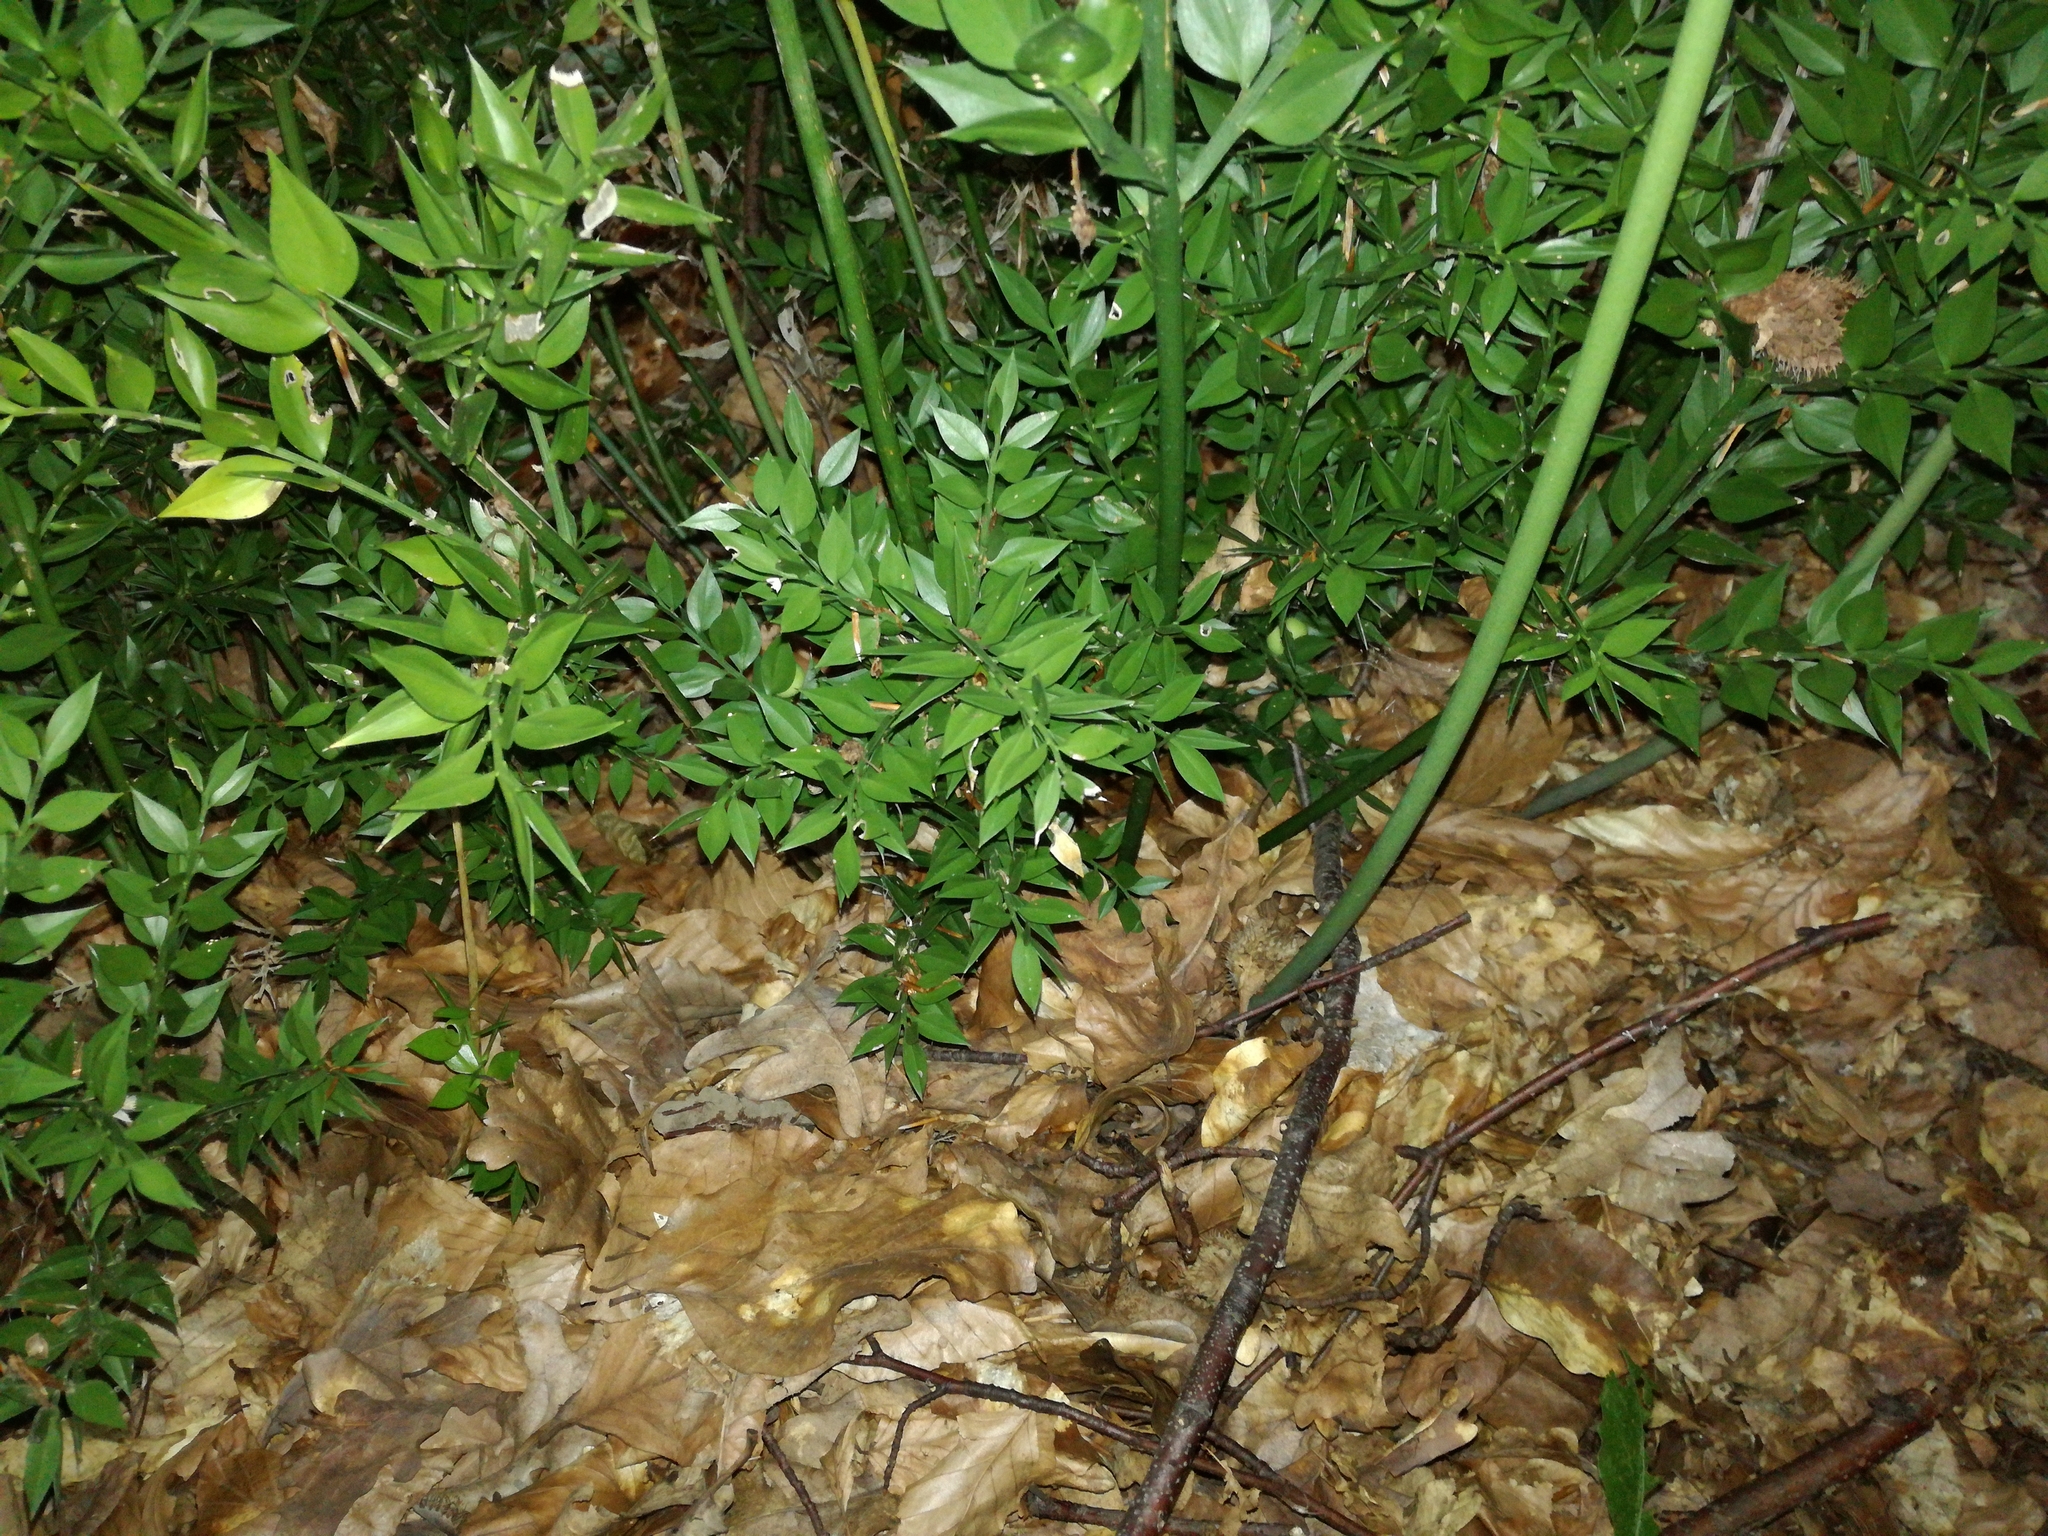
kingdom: Plantae
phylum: Tracheophyta
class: Liliopsida
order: Asparagales
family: Asparagaceae
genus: Ruscus
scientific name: Ruscus aculeatus
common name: Butcher's-broom
